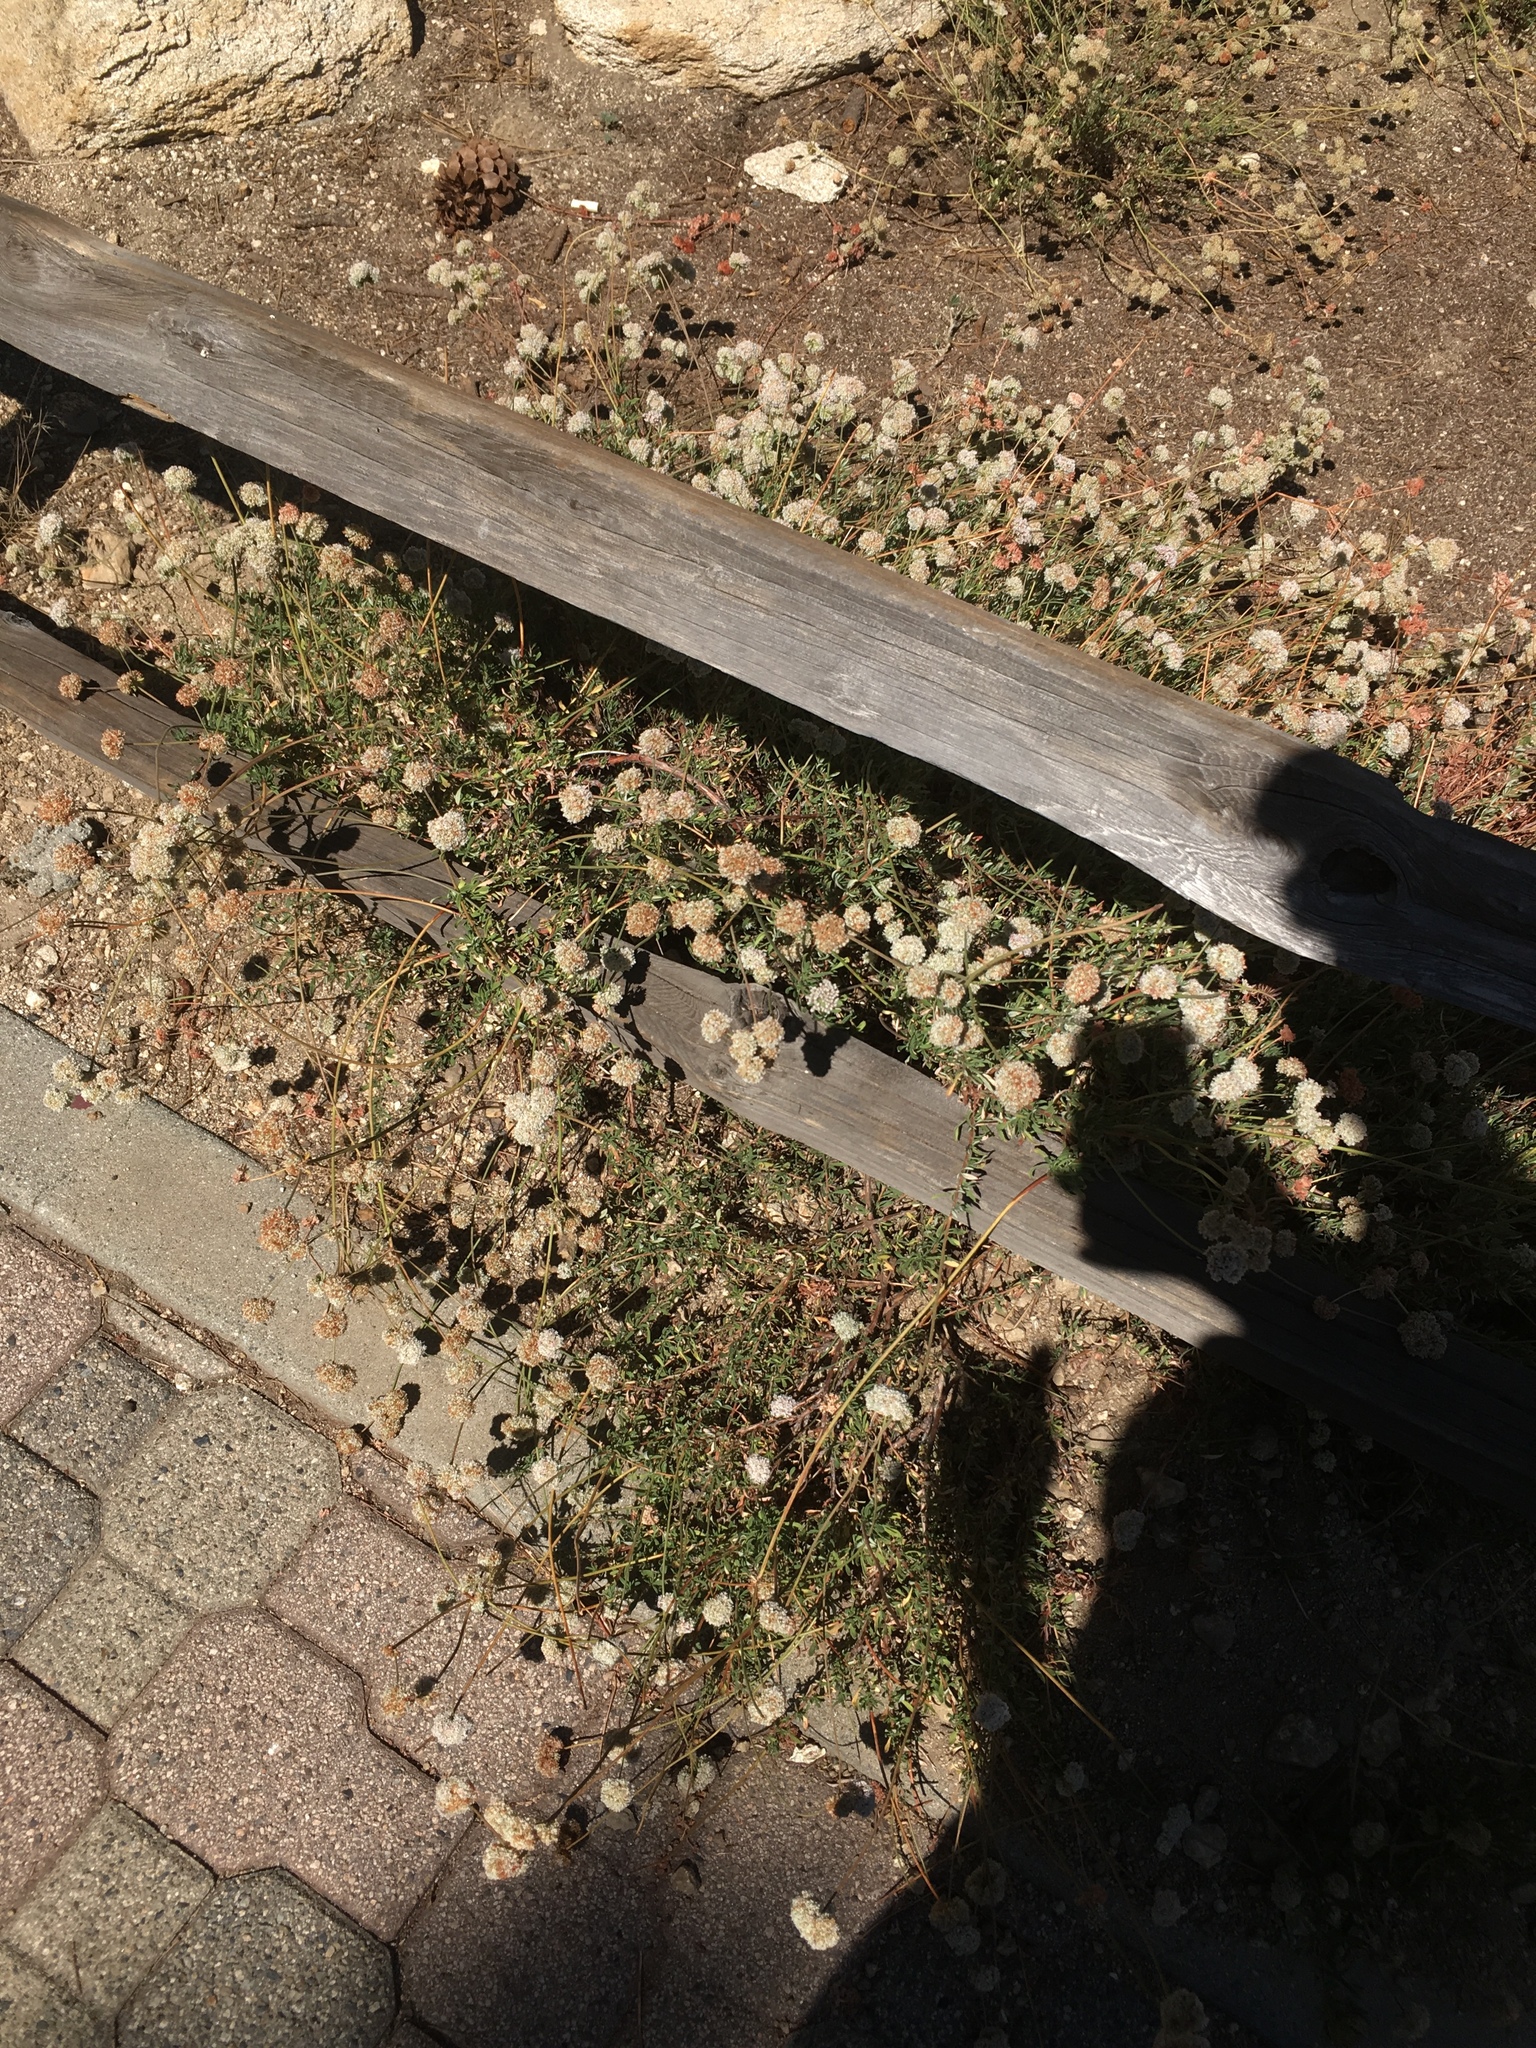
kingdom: Plantae
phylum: Tracheophyta
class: Magnoliopsida
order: Caryophyllales
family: Polygonaceae
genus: Eriogonum
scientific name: Eriogonum fasciculatum
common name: California wild buckwheat
